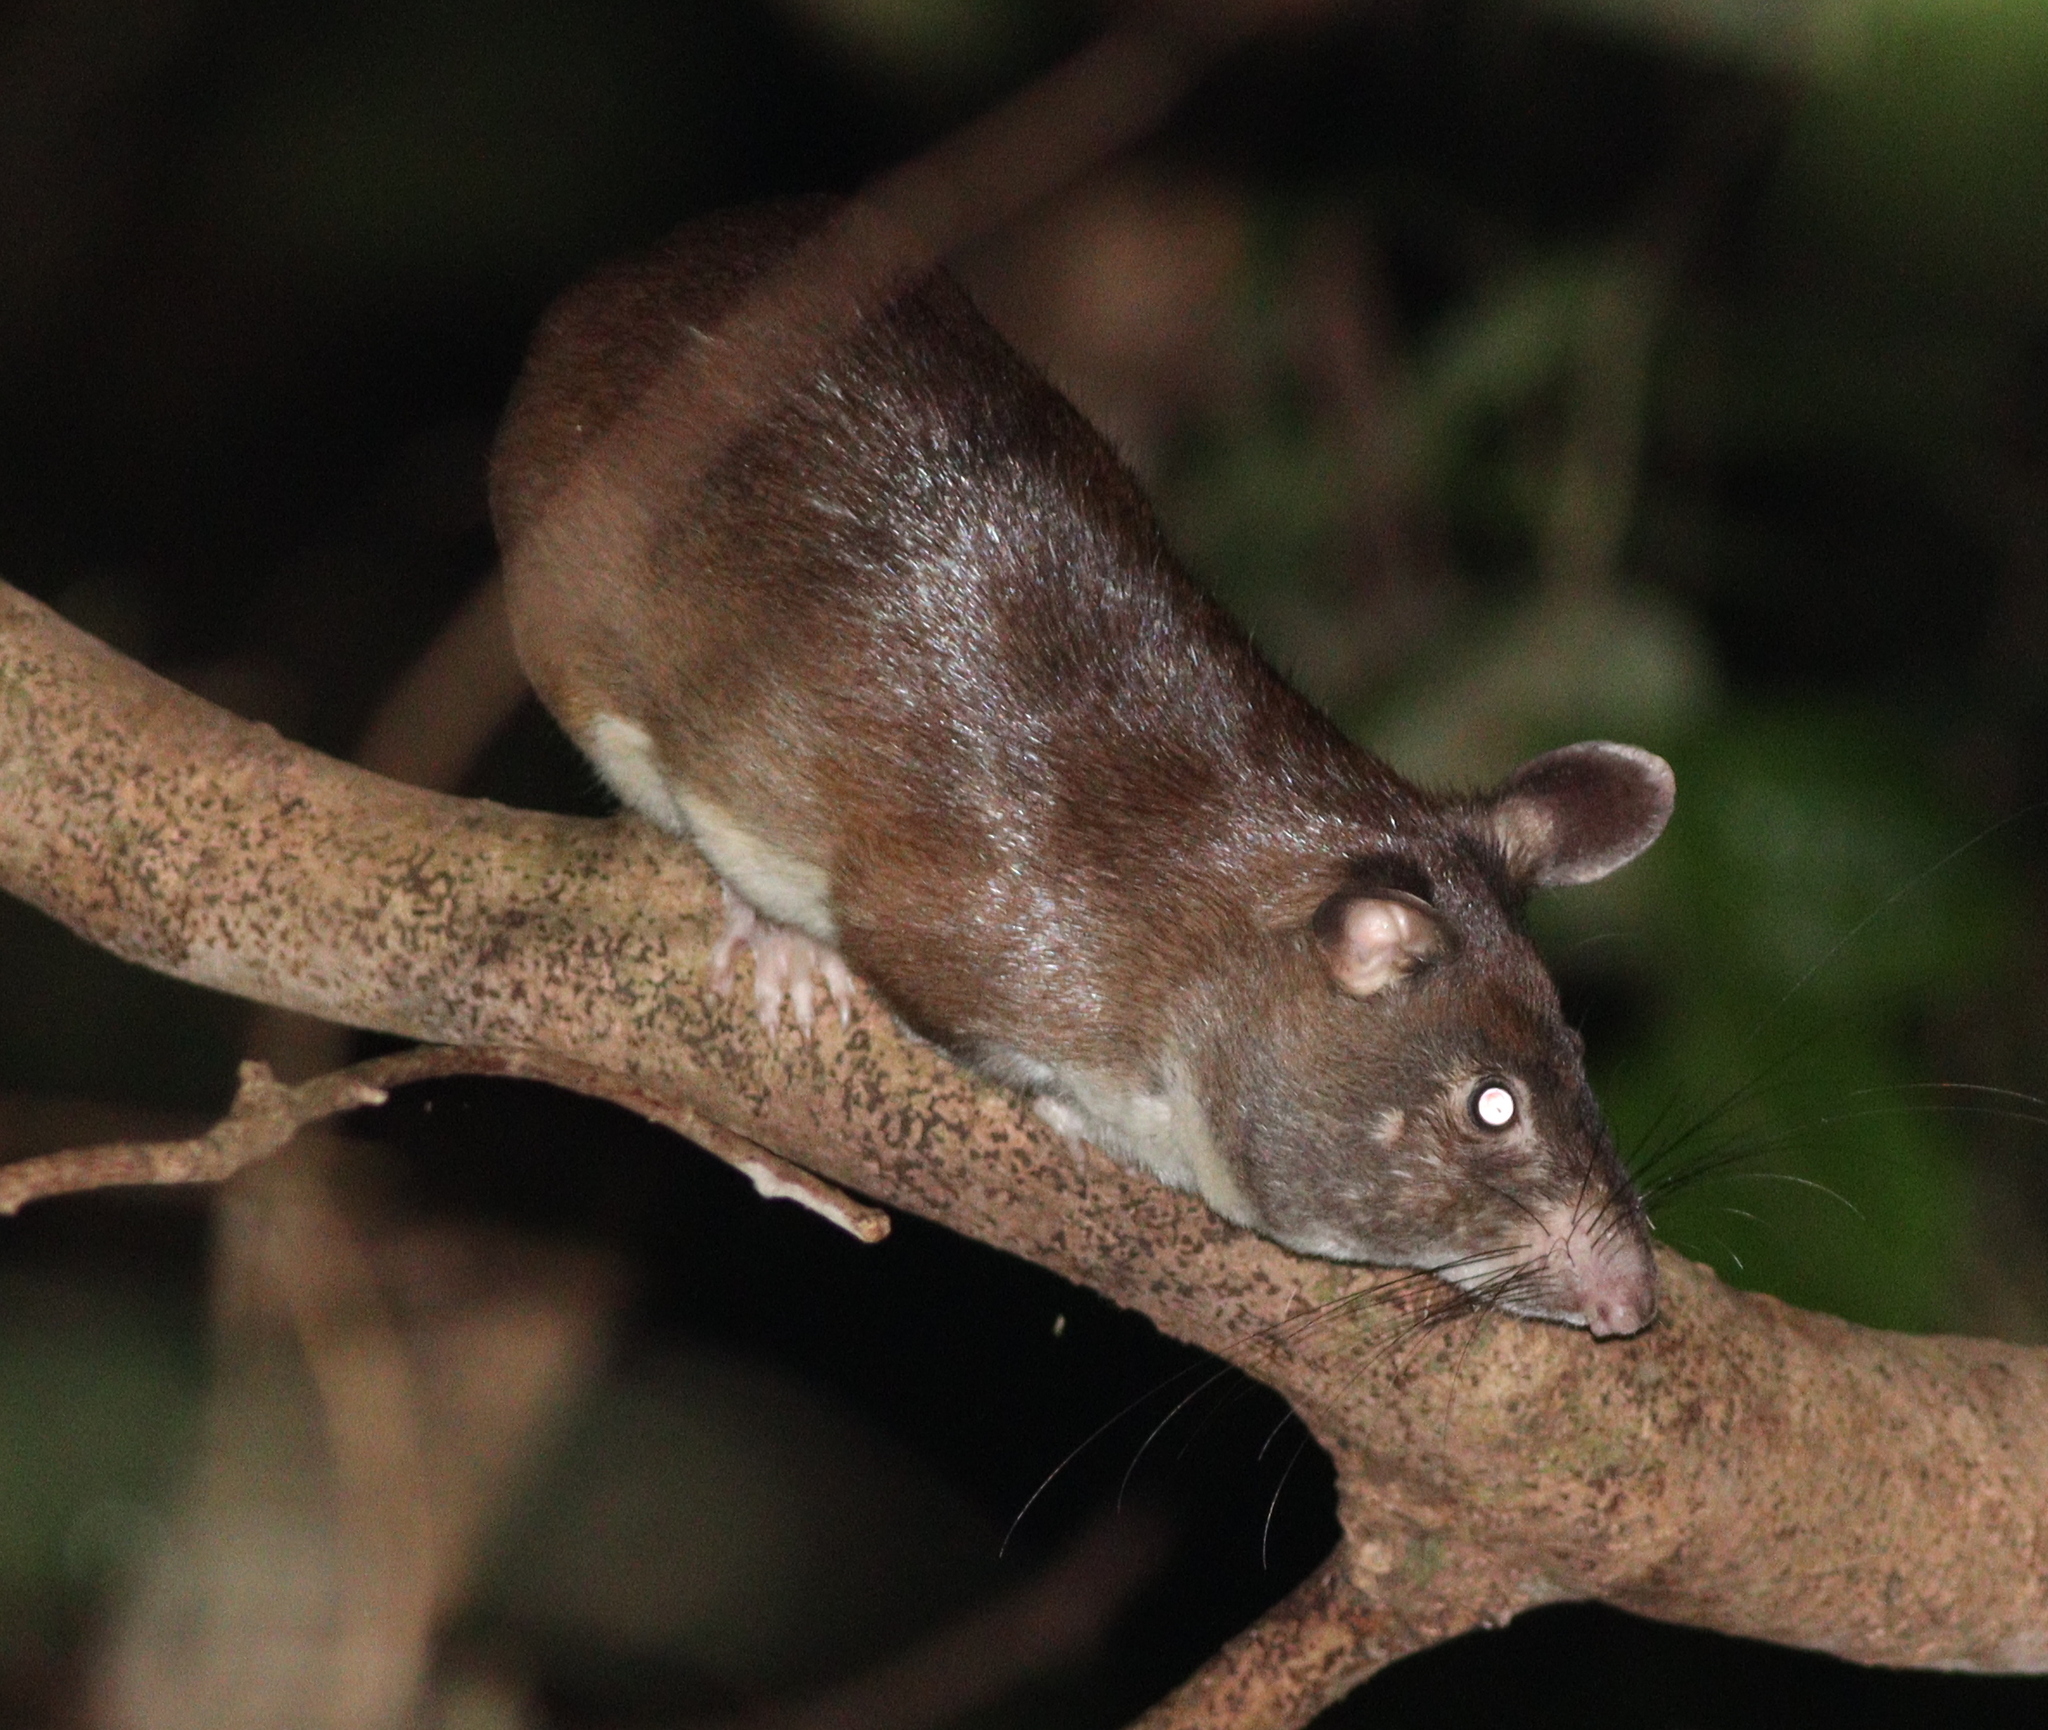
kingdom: Animalia
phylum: Chordata
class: Mammalia
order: Rodentia
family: Nesomyidae
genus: Cricetomys
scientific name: Cricetomys emini
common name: Forest giant pouched rat
